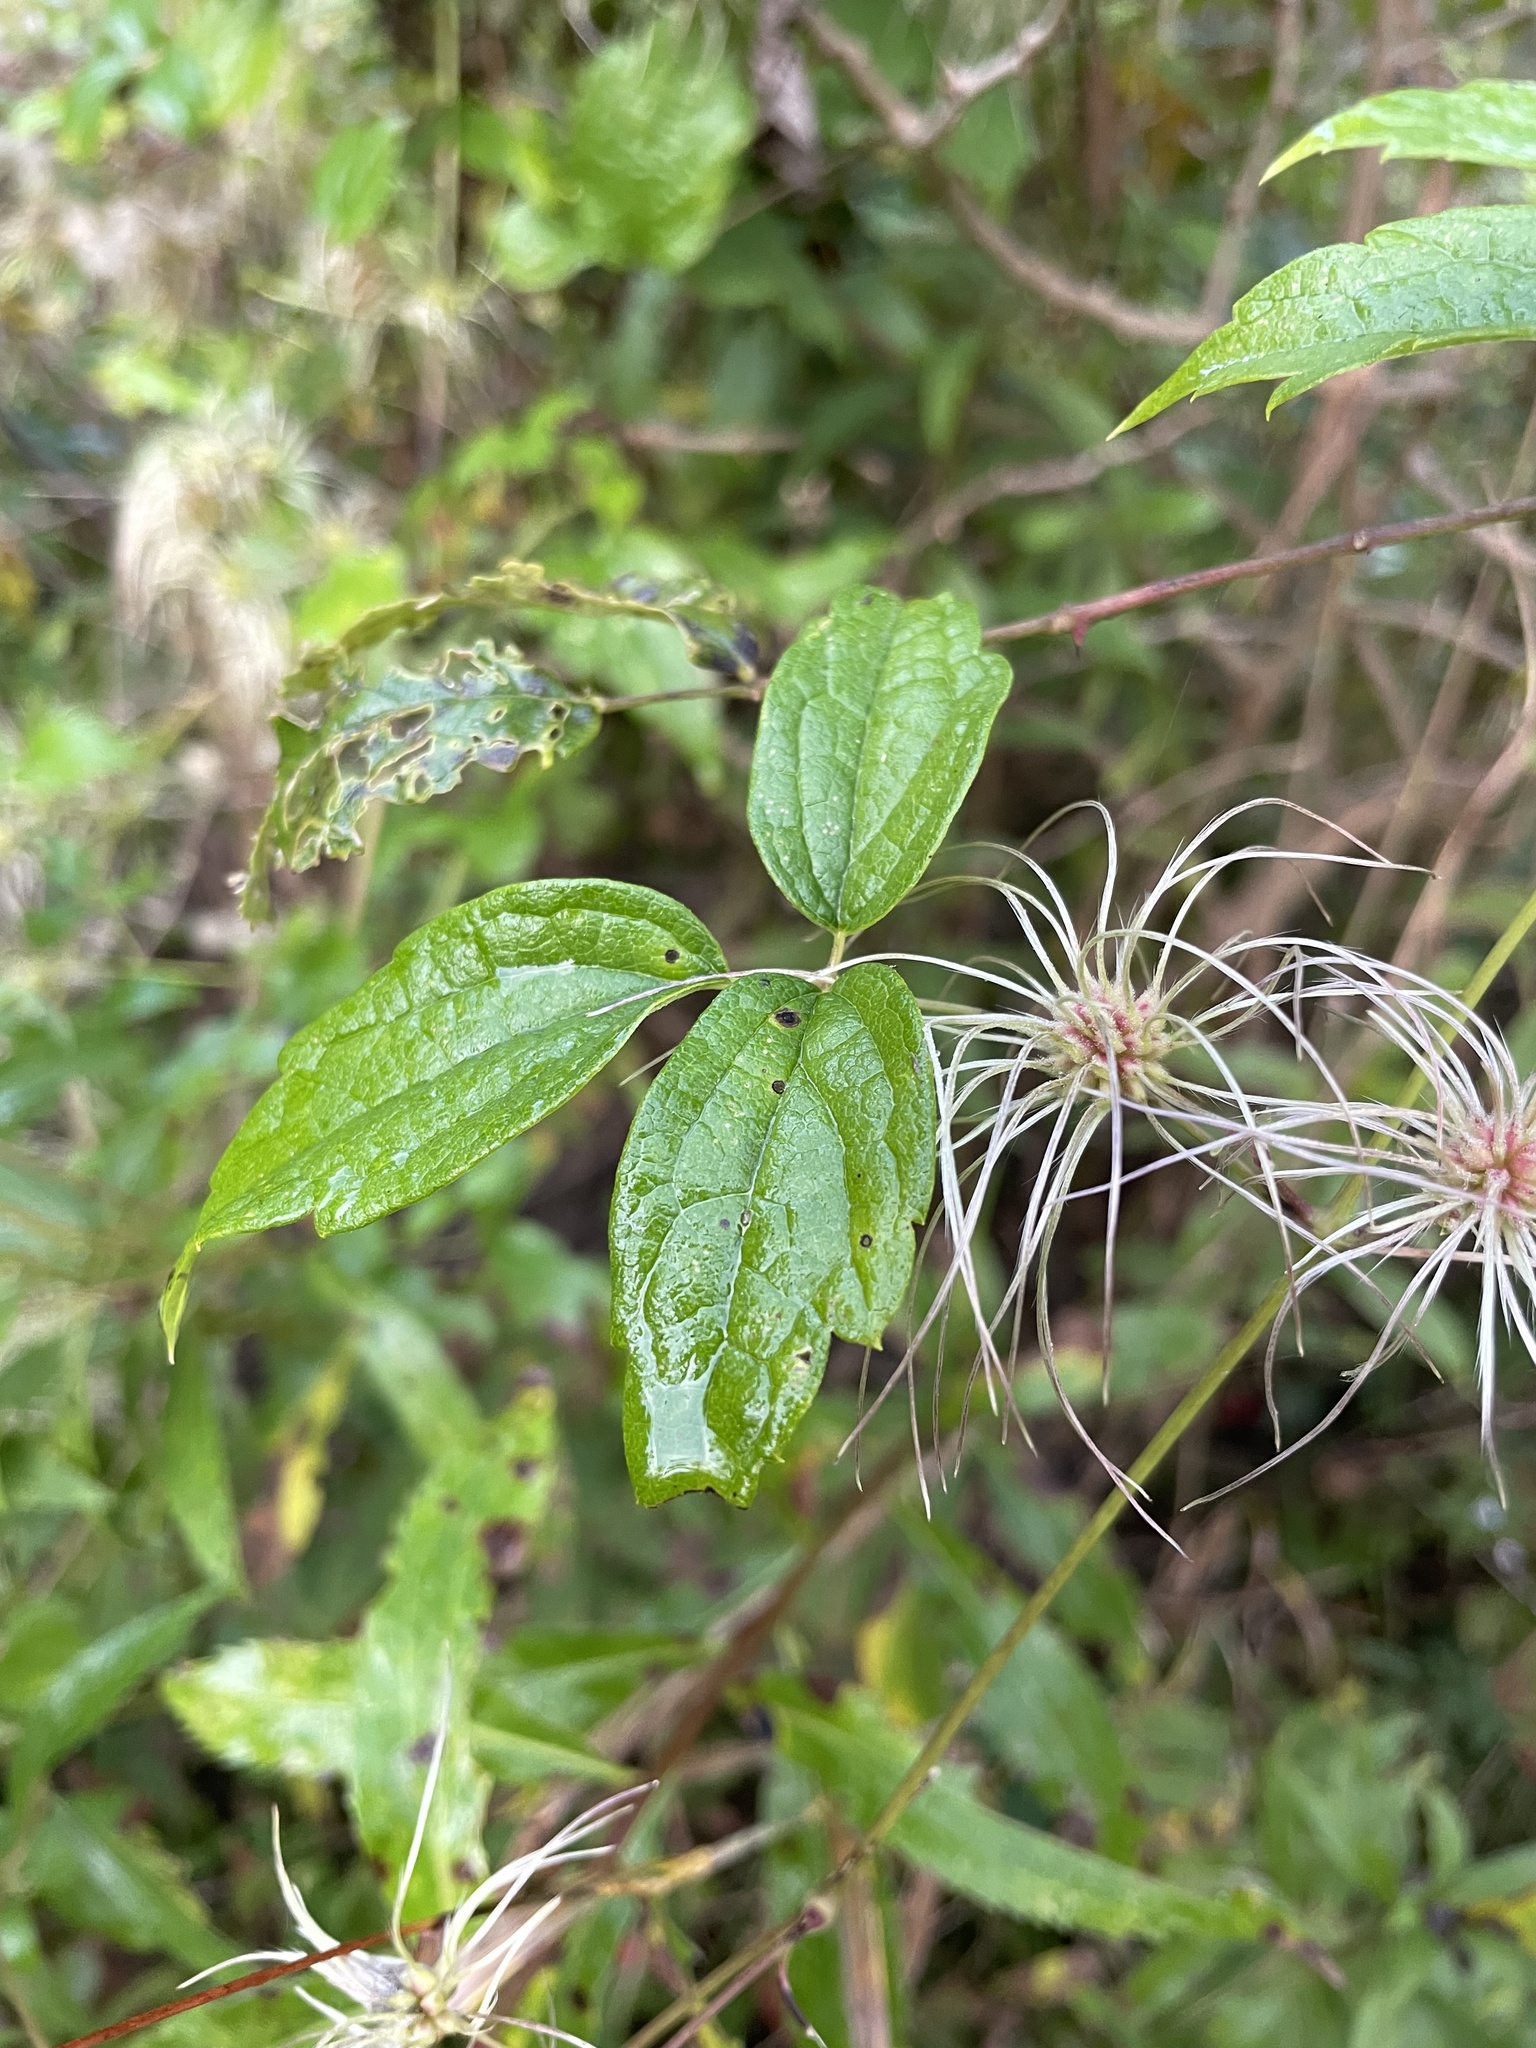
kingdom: Plantae
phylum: Tracheophyta
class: Magnoliopsida
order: Ranunculales
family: Ranunculaceae
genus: Clematis
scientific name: Clematis virginiana
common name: Virgin's-bower
